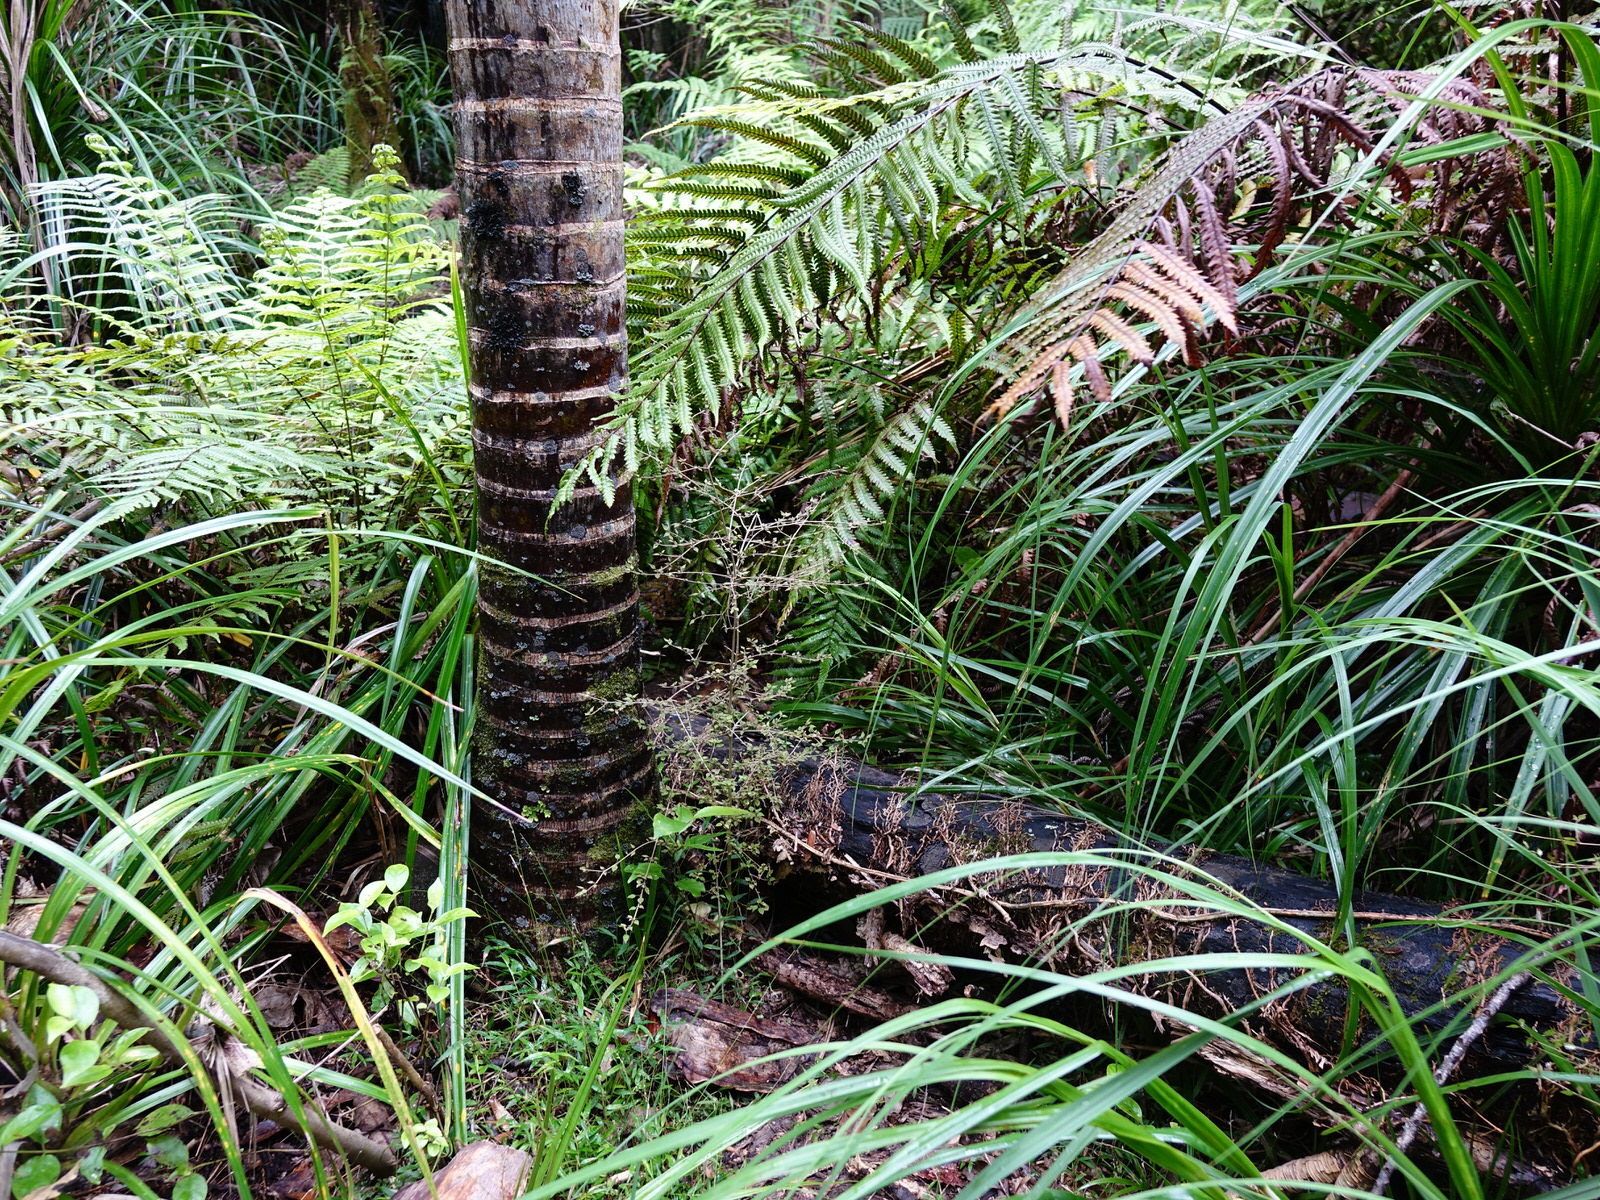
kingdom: Plantae
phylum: Tracheophyta
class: Magnoliopsida
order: Gentianales
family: Rubiaceae
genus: Coprosma
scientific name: Coprosma areolata
